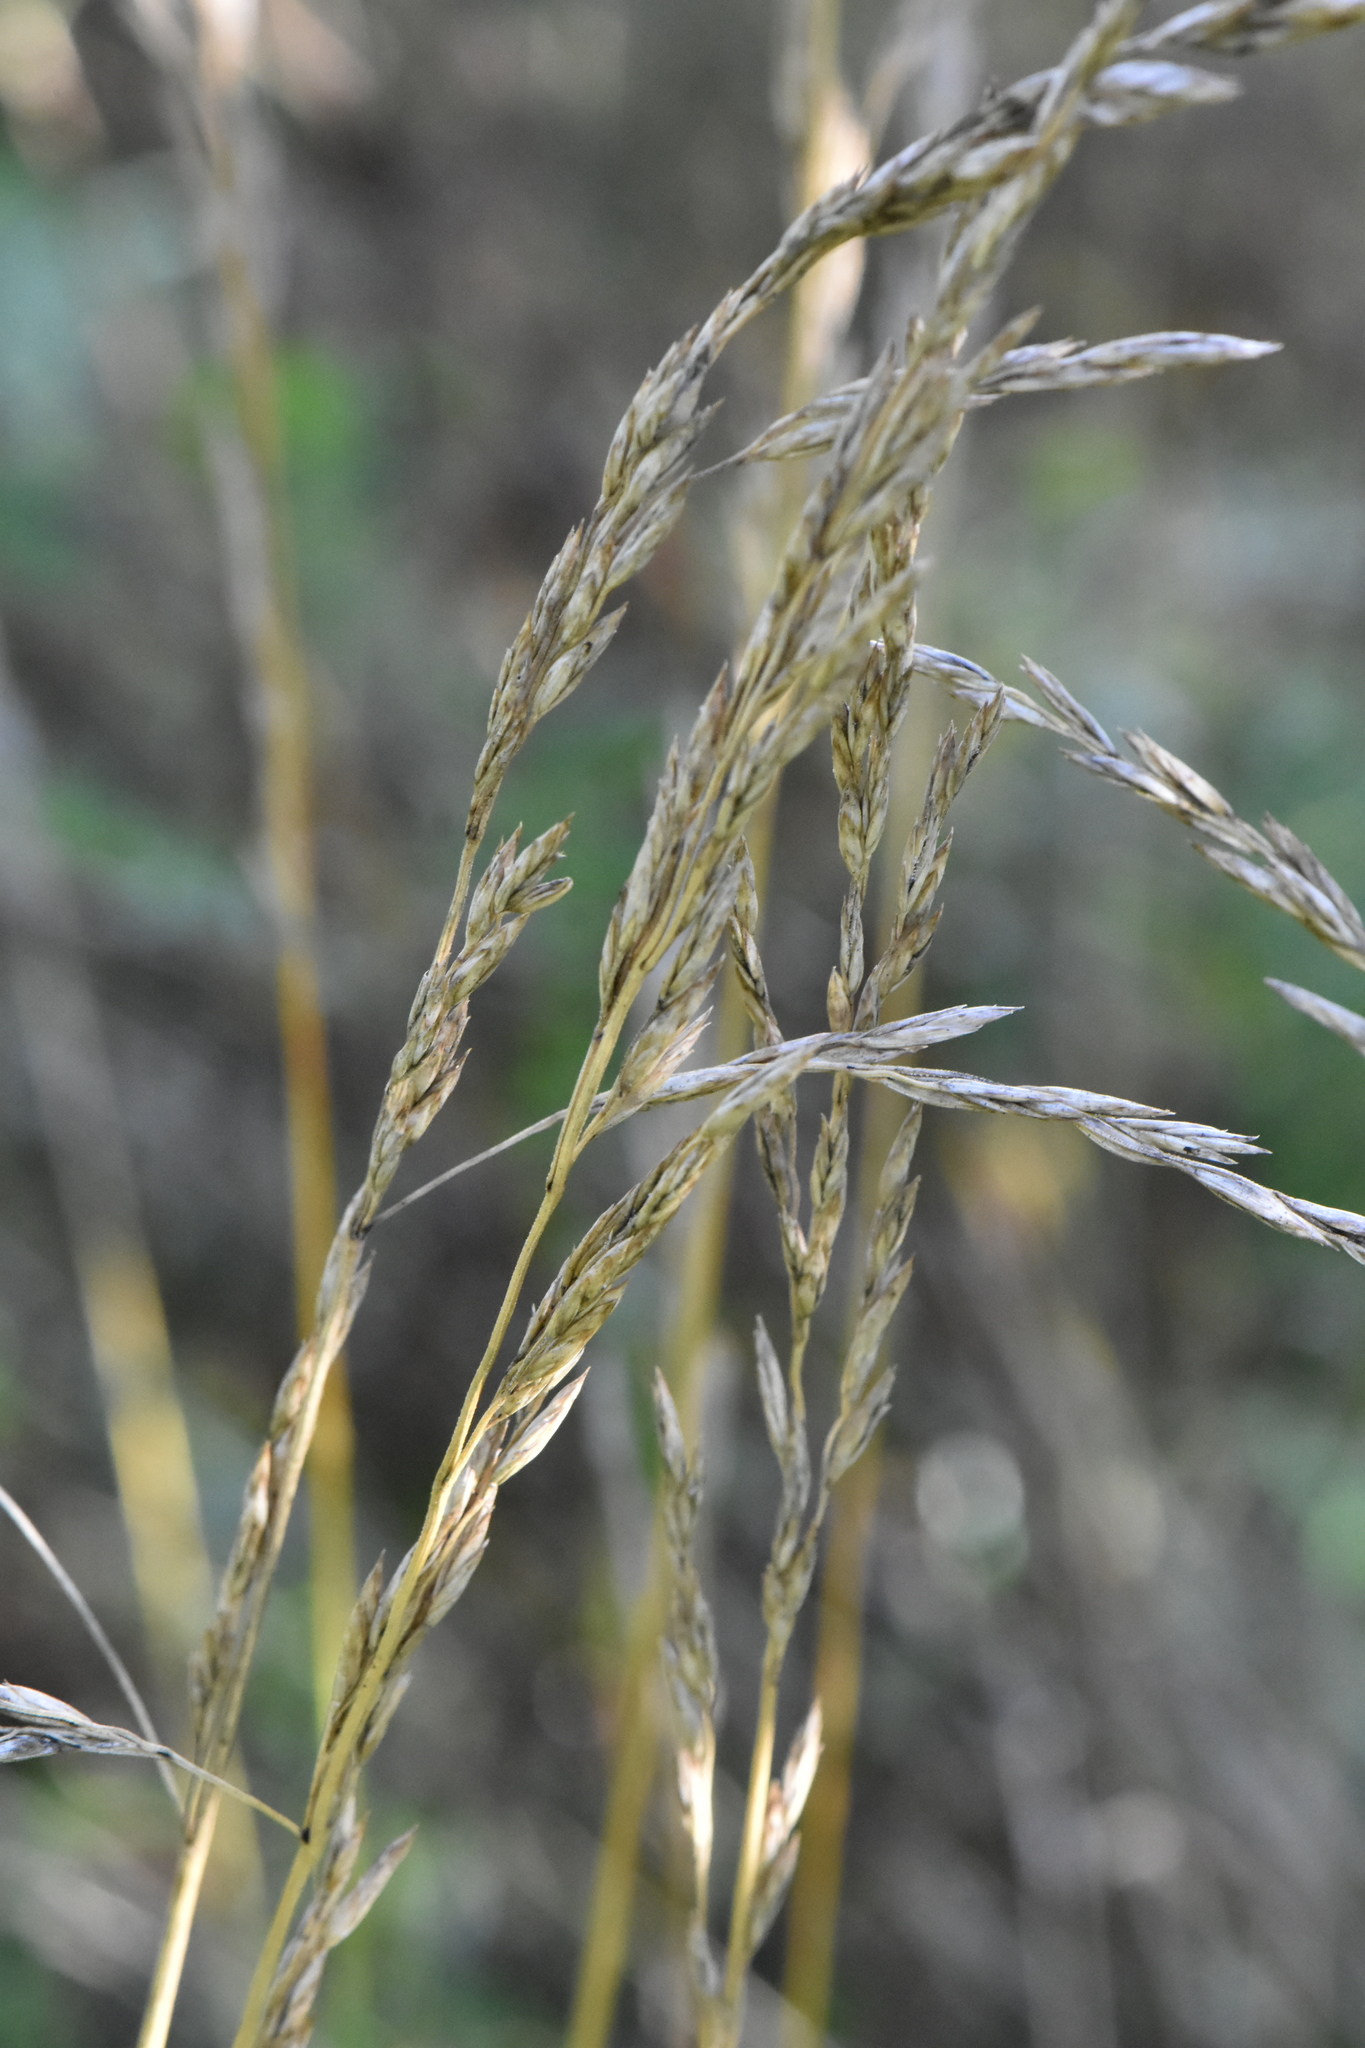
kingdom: Plantae
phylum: Tracheophyta
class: Liliopsida
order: Poales
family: Poaceae
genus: Lolium
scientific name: Lolium arundinaceum
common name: Reed fescue
